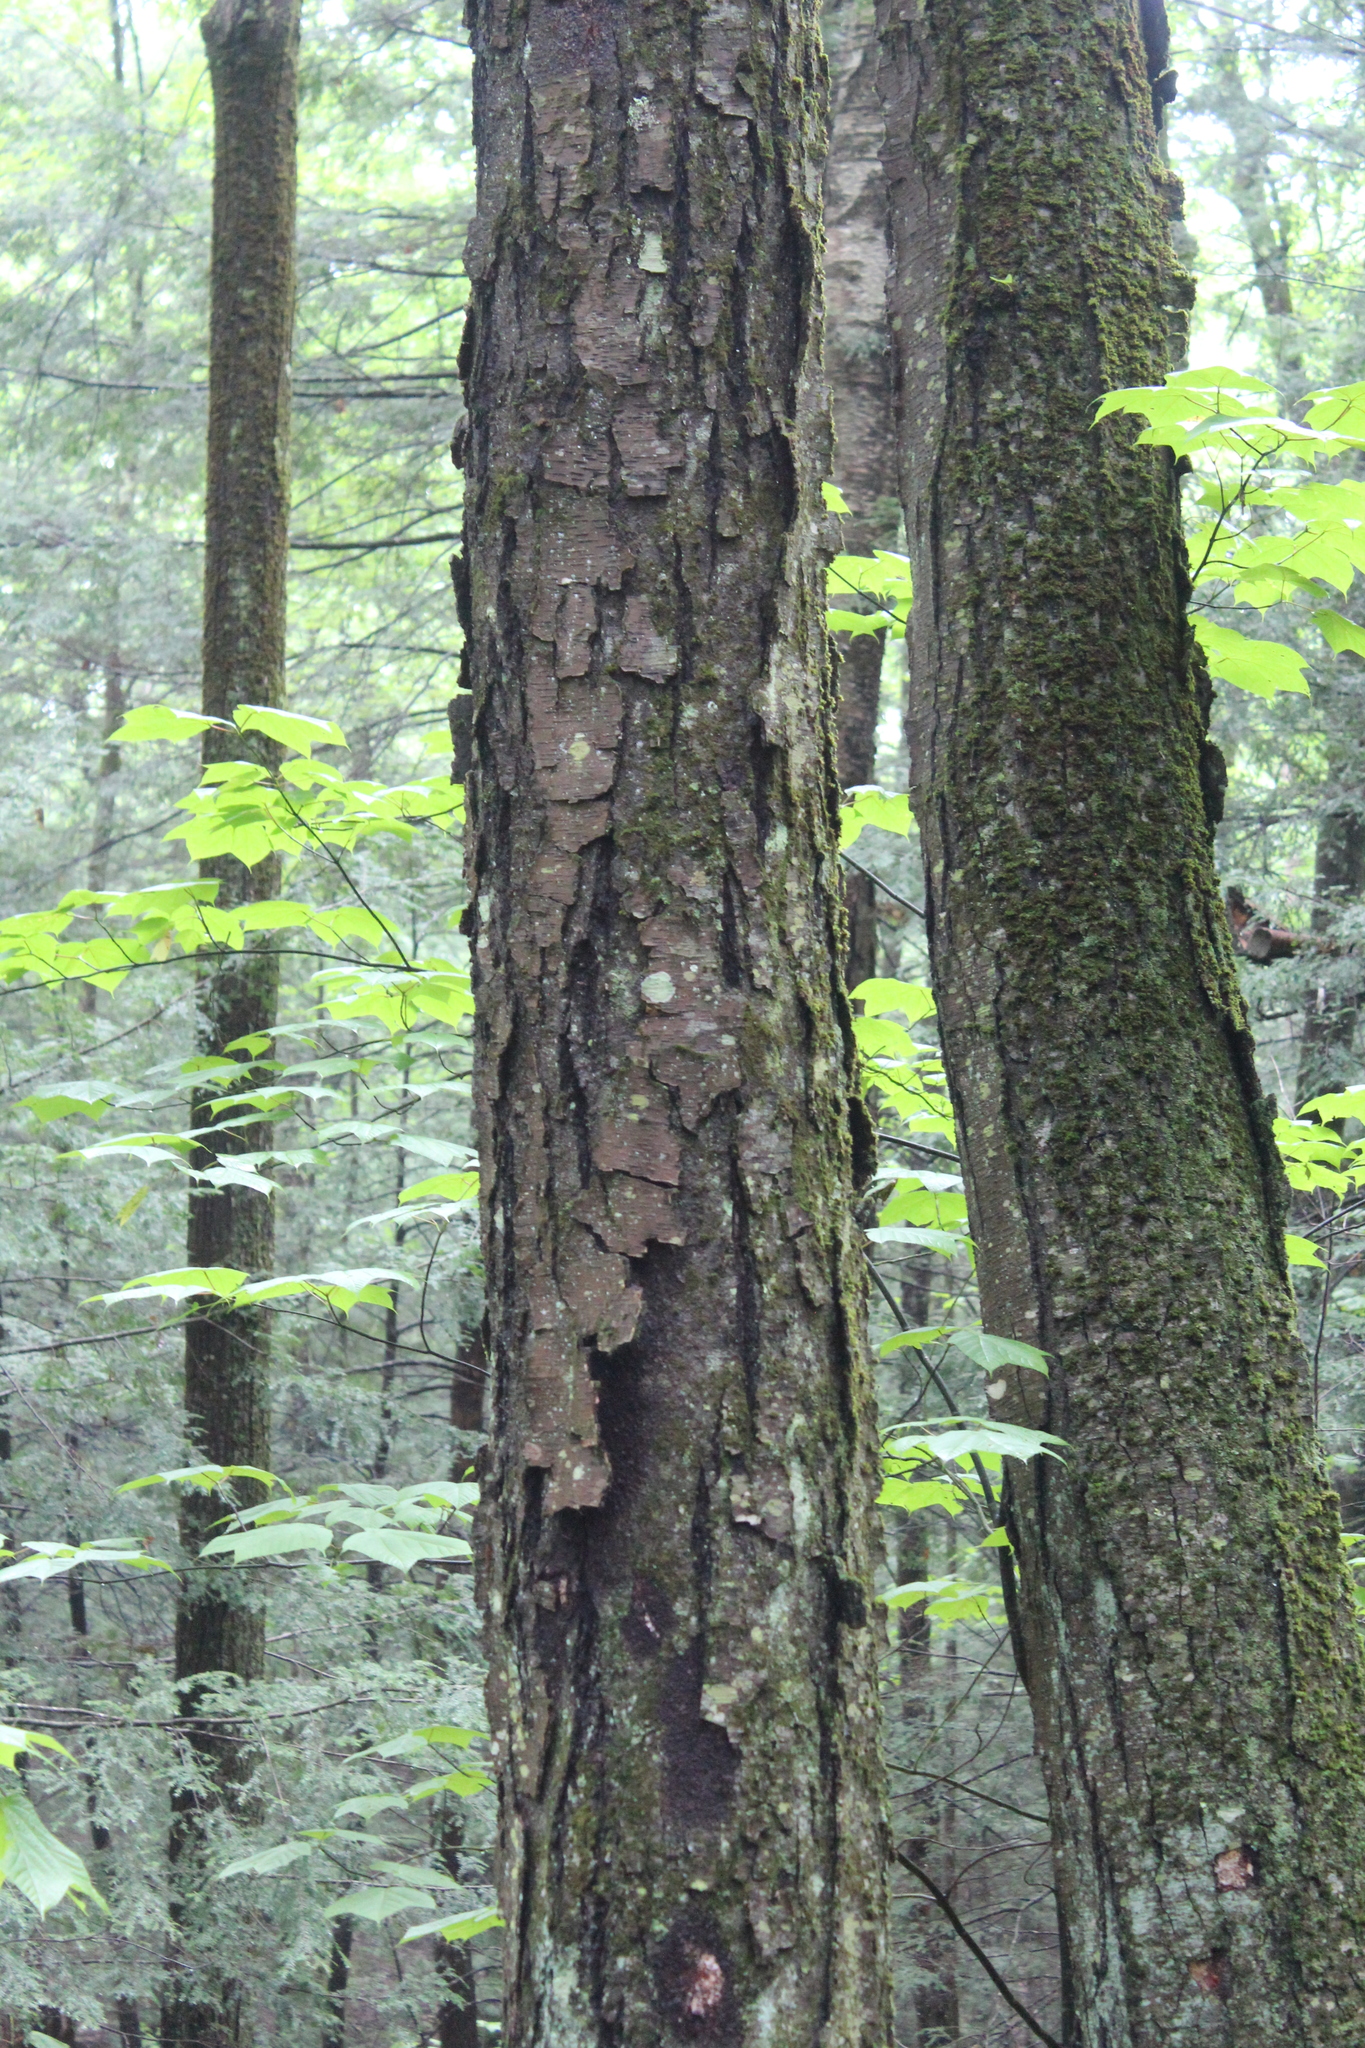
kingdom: Plantae
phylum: Tracheophyta
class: Magnoliopsida
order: Fagales
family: Betulaceae
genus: Betula
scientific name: Betula lenta
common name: Black birch
